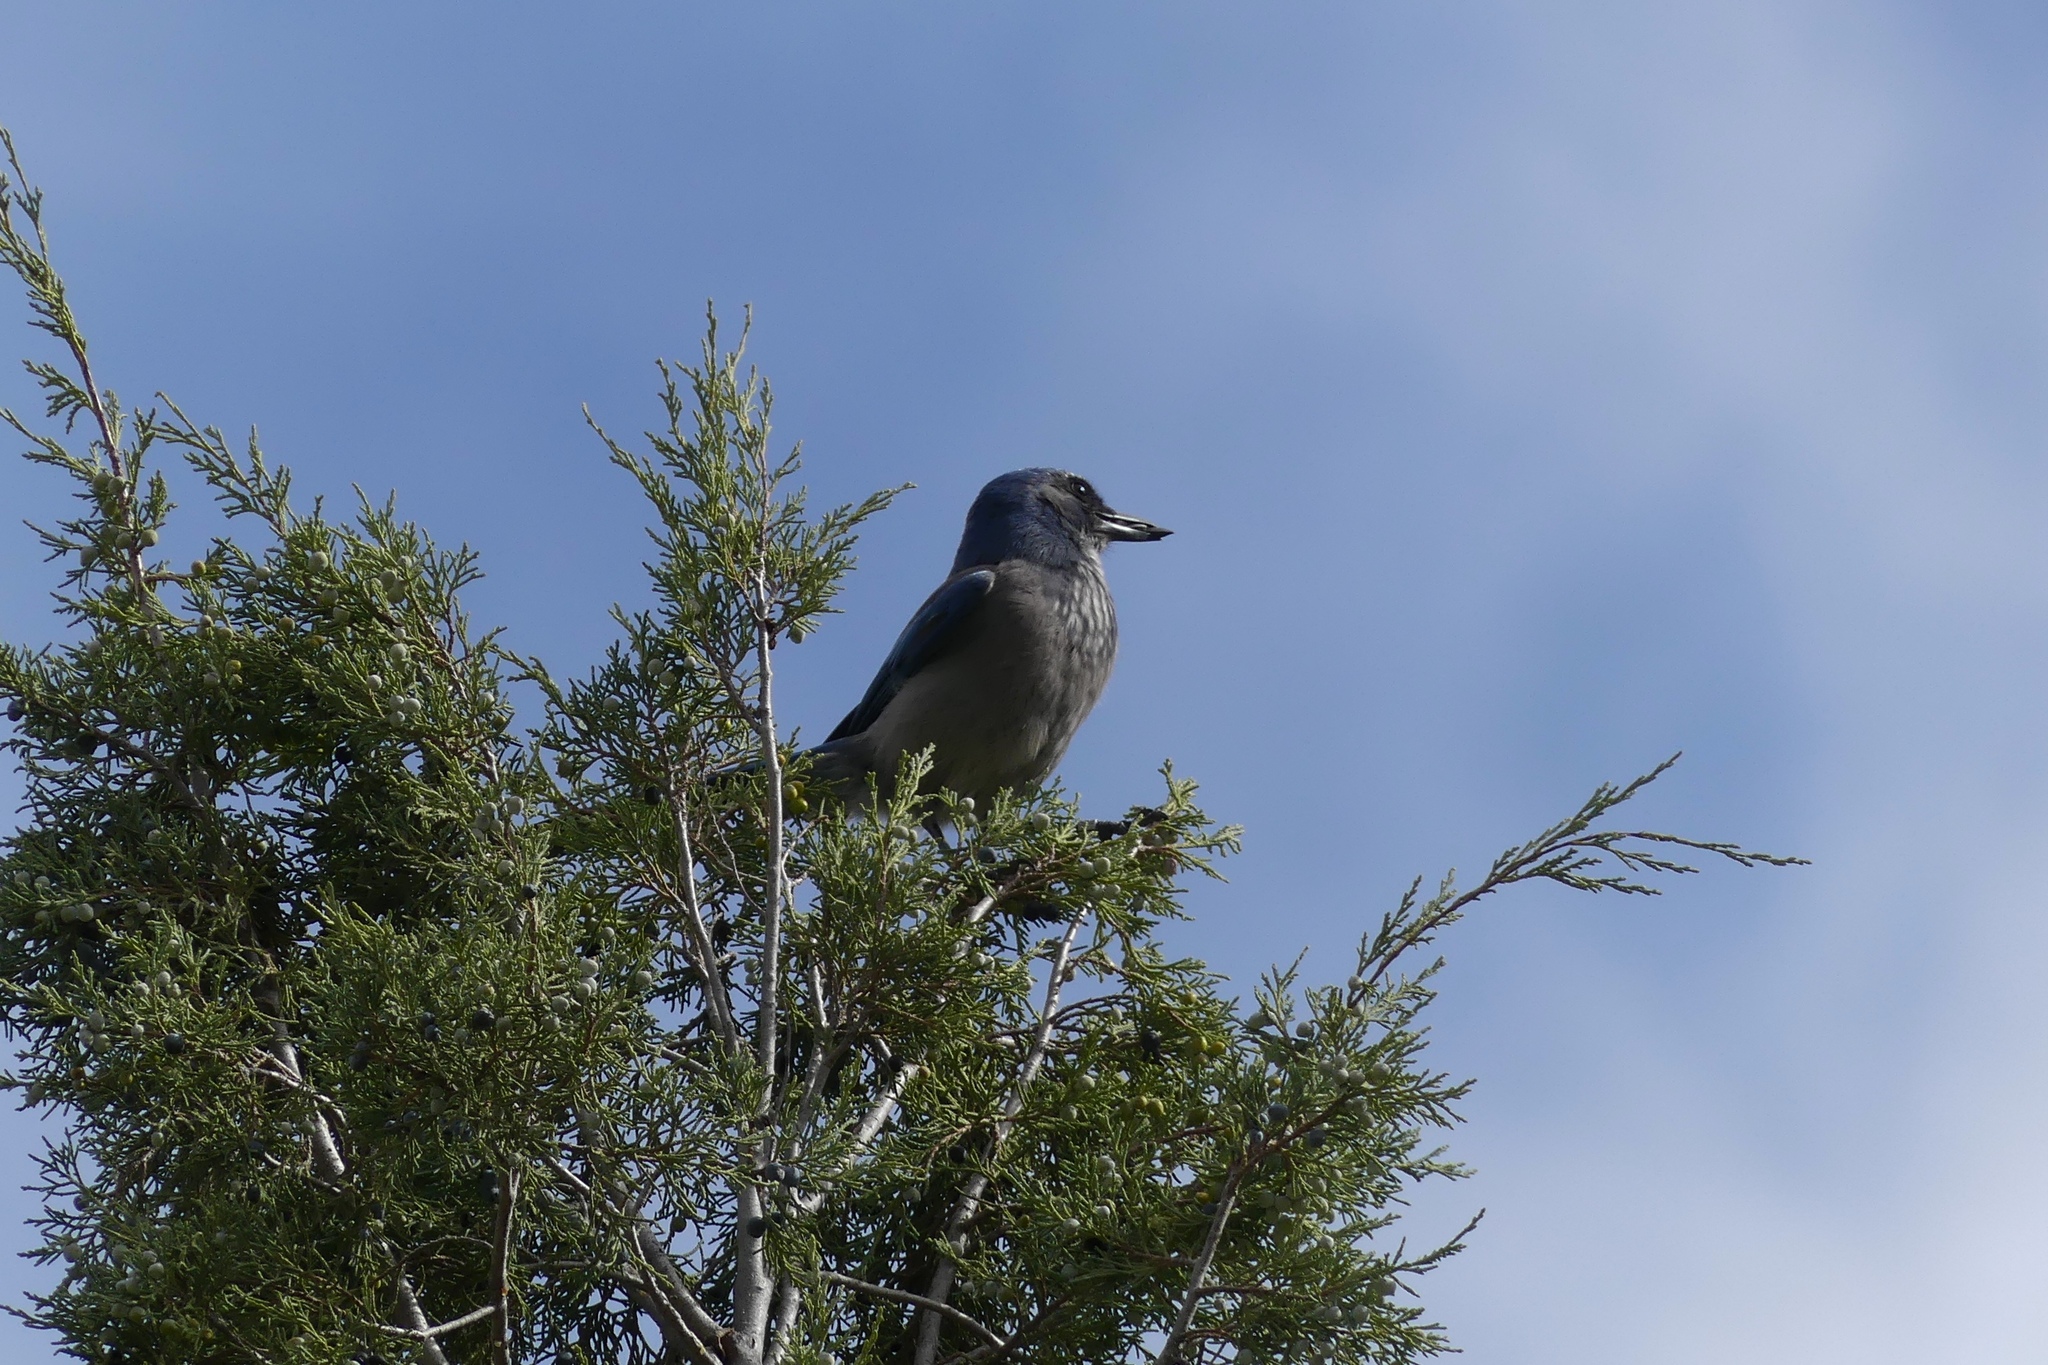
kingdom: Animalia
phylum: Chordata
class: Aves
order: Passeriformes
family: Corvidae
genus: Aphelocoma
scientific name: Aphelocoma woodhouseii
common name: Woodhouse's scrub-jay
